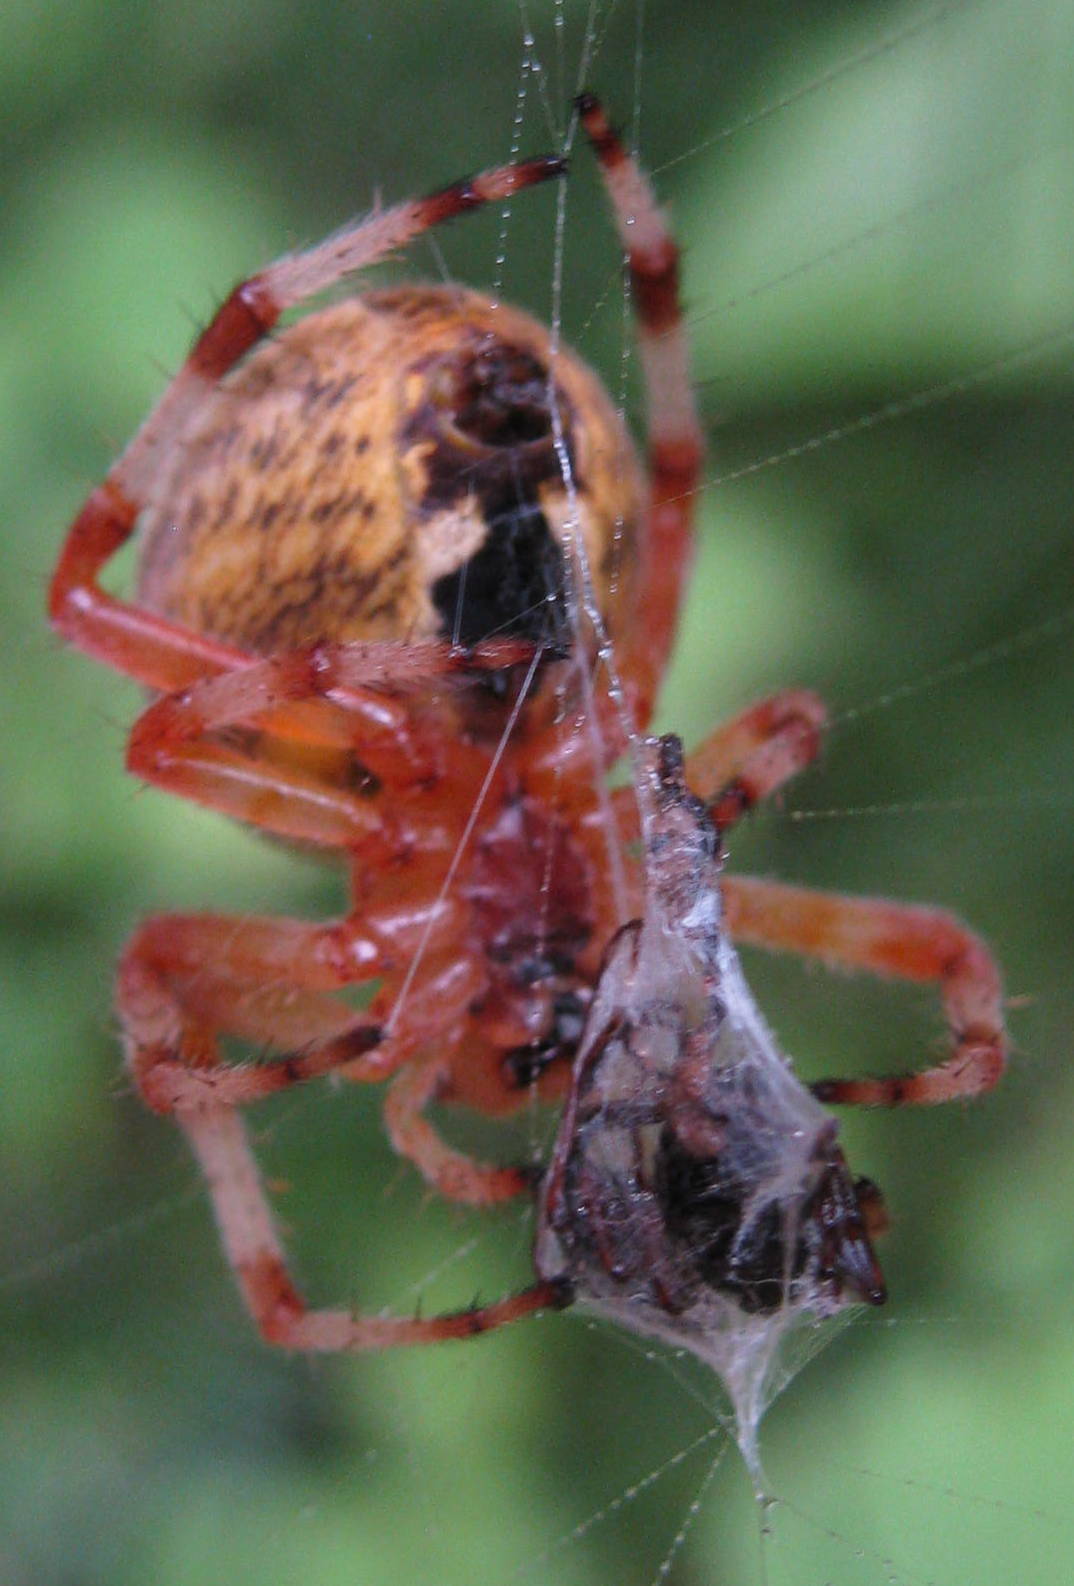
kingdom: Animalia
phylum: Arthropoda
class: Arachnida
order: Araneae
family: Araneidae
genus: Araneus
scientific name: Araneus marmoreus
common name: Marbled orbweaver
